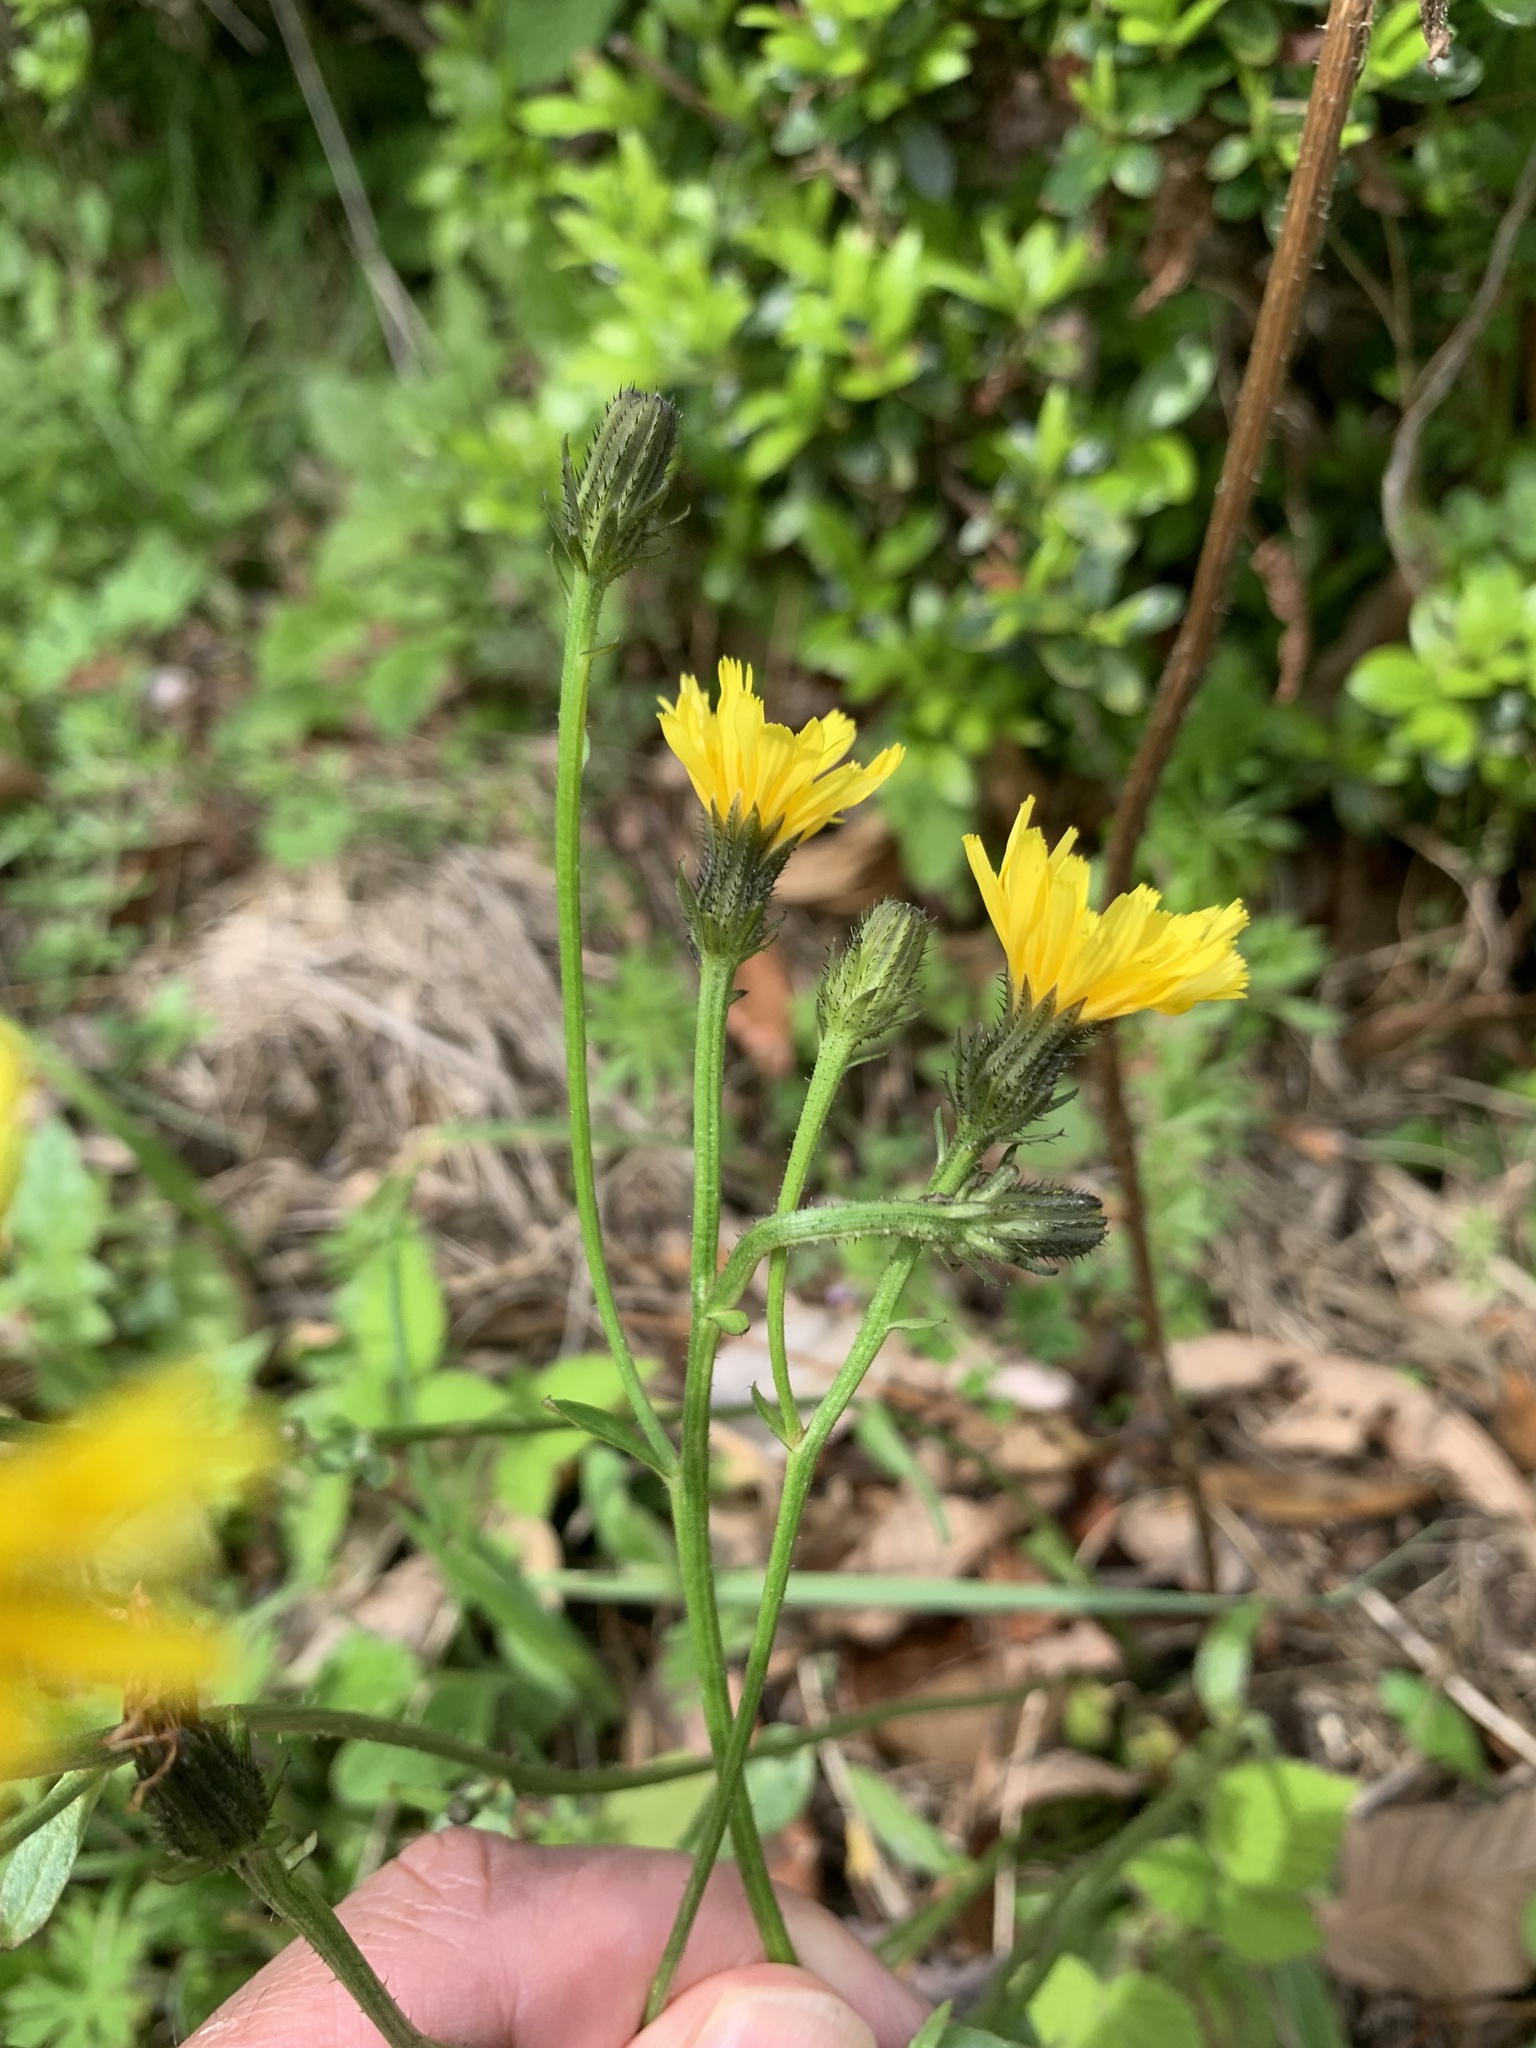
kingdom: Plantae
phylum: Tracheophyta
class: Magnoliopsida
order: Asterales
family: Asteraceae
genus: Picris
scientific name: Picris japonica
